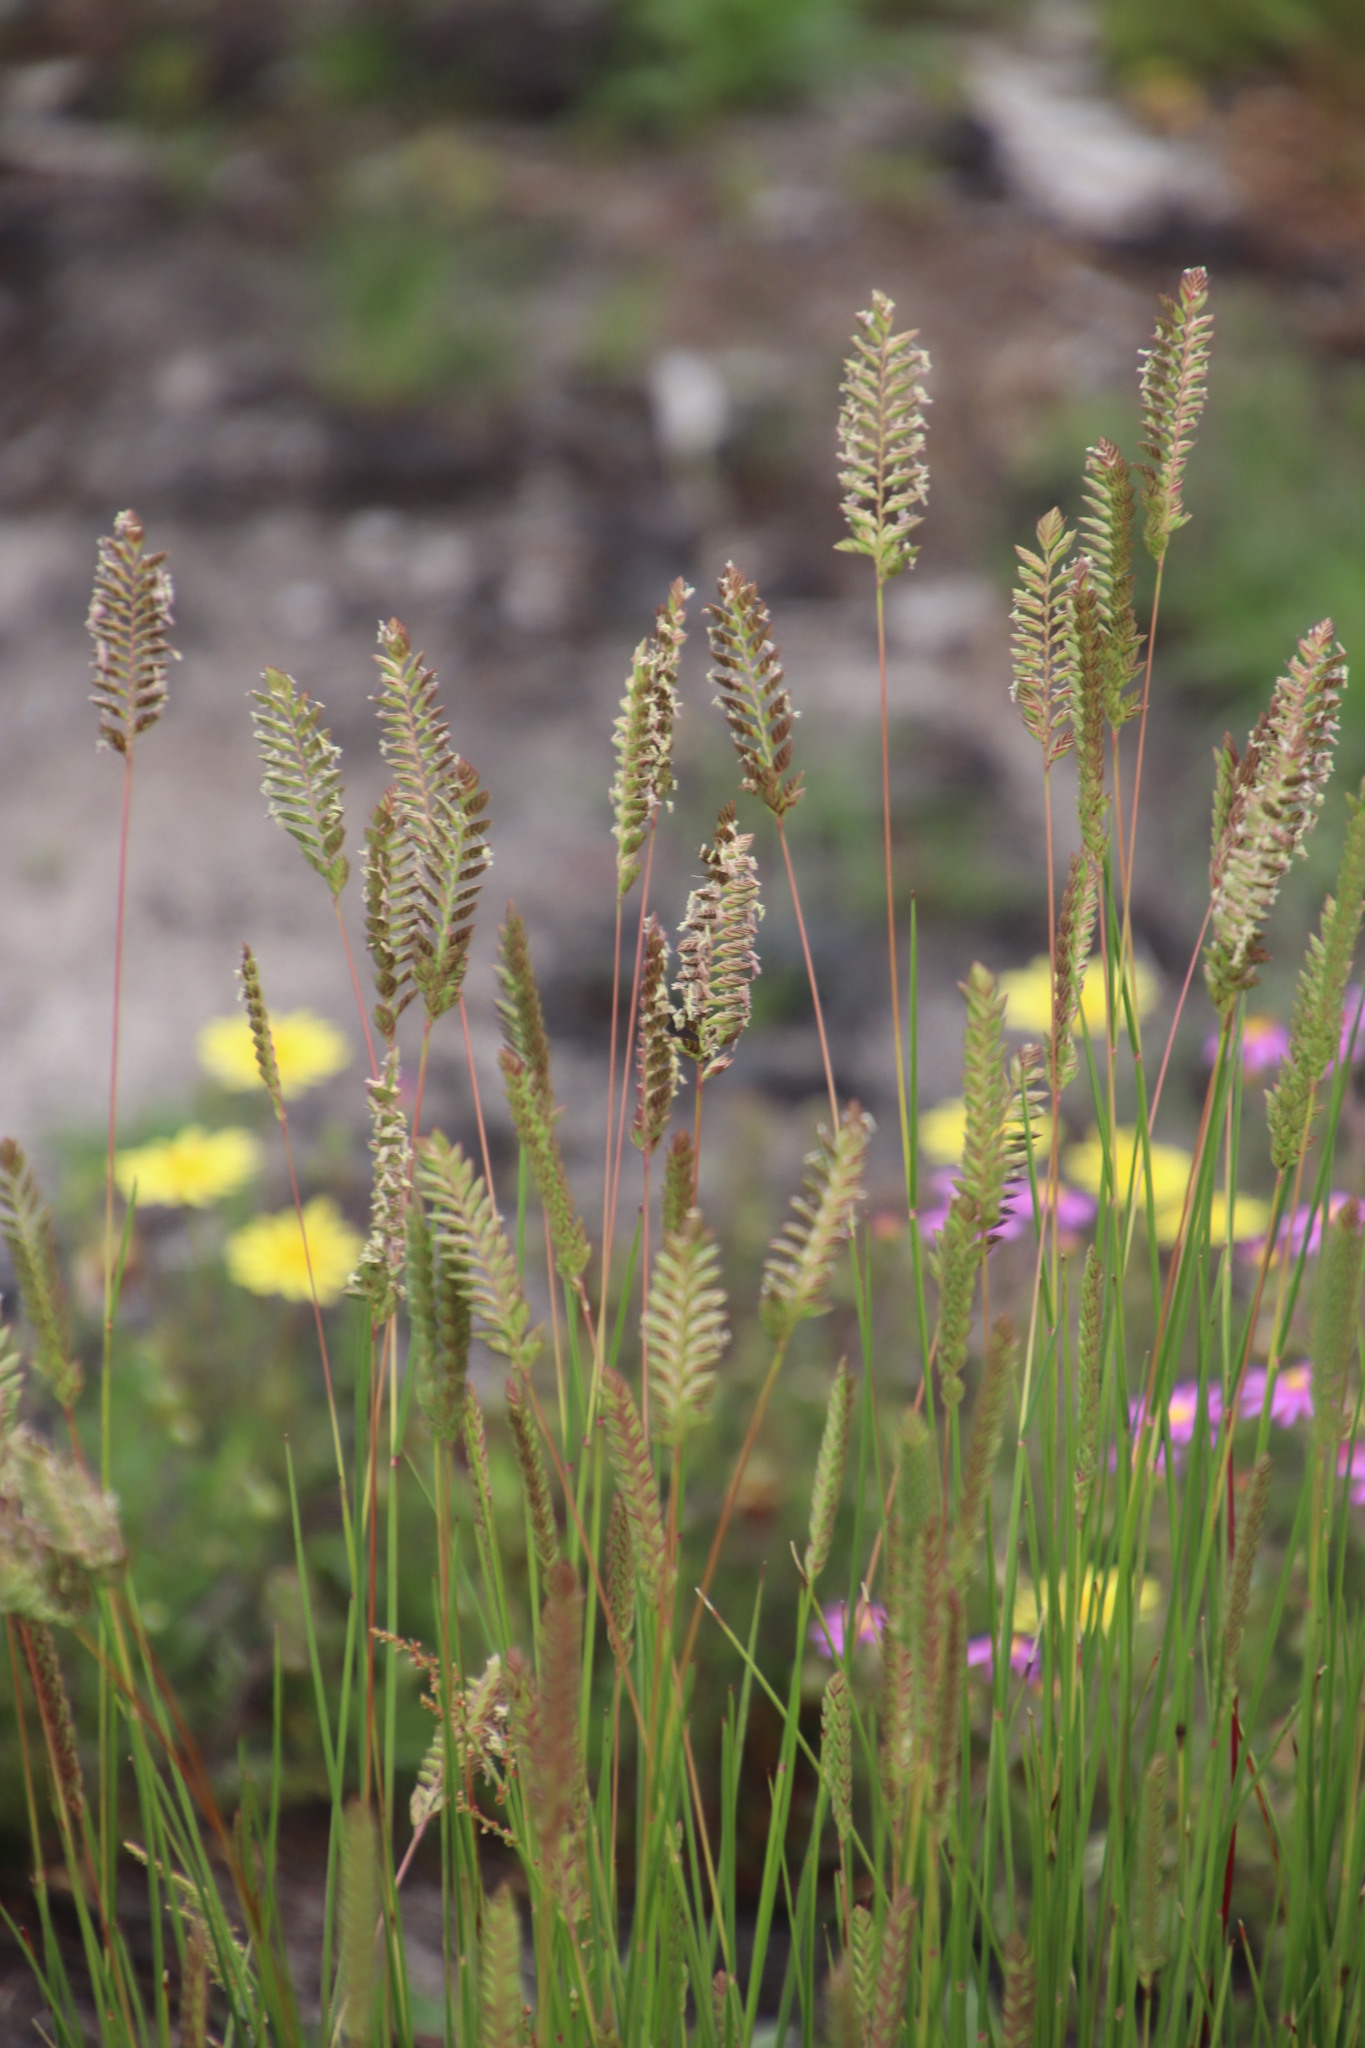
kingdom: Plantae
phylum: Tracheophyta
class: Liliopsida
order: Poales
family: Poaceae
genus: Tribolium
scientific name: Tribolium uniolae
